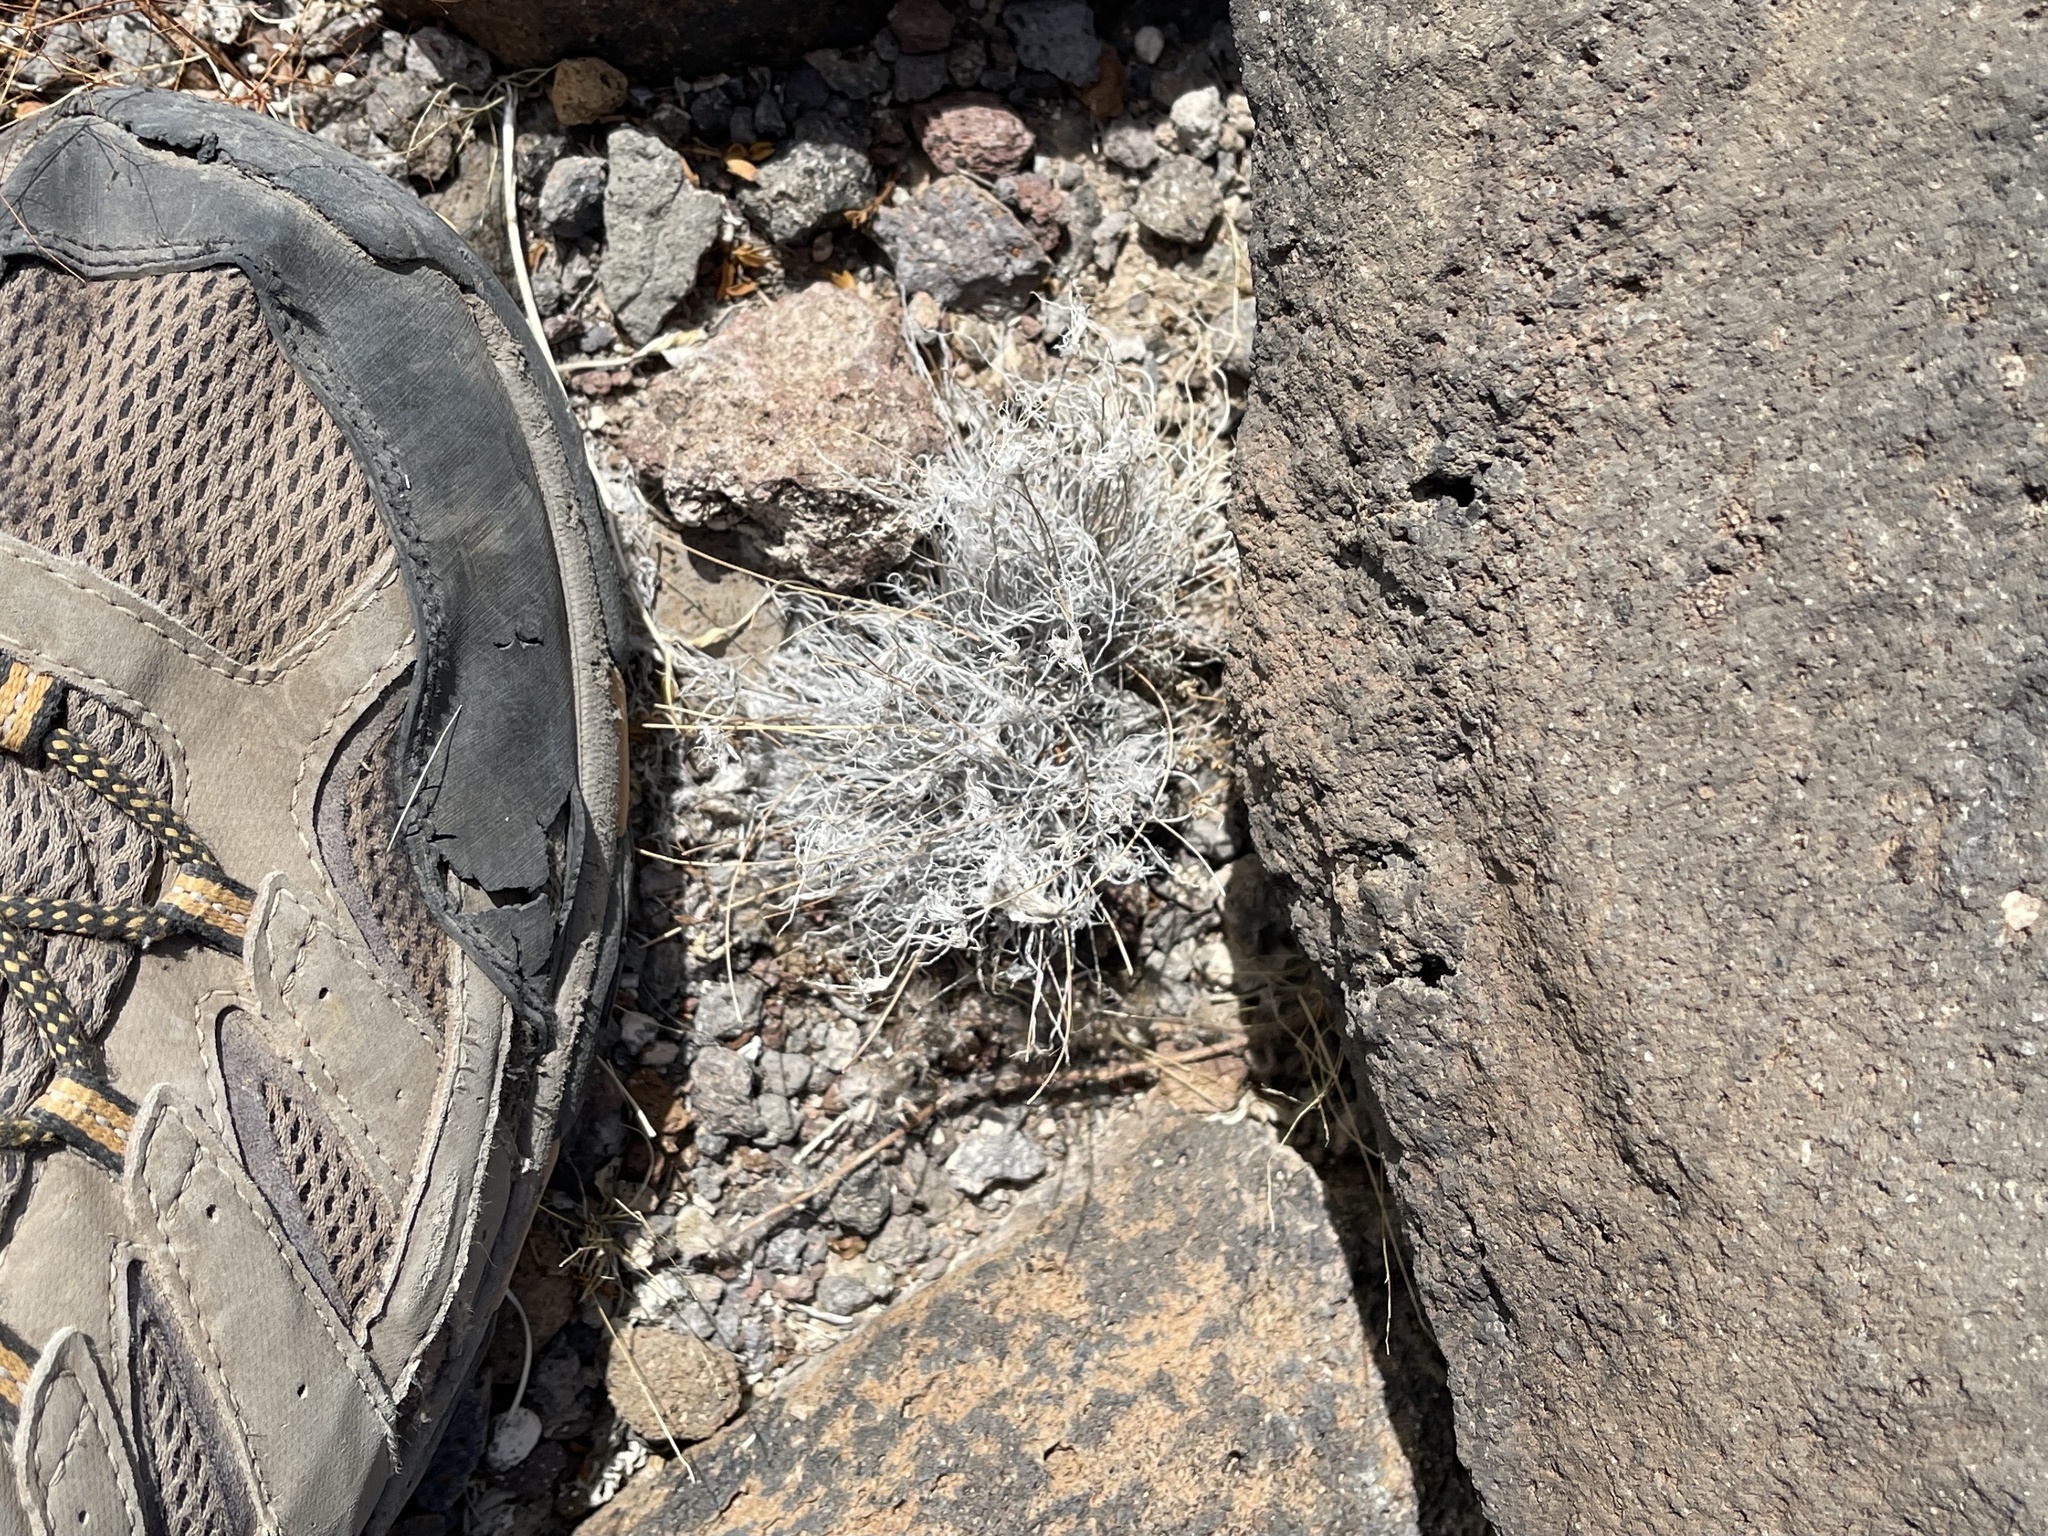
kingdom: Plantae
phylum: Tracheophyta
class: Liliopsida
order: Poales
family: Poaceae
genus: Dasyochloa
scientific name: Dasyochloa pulchella
